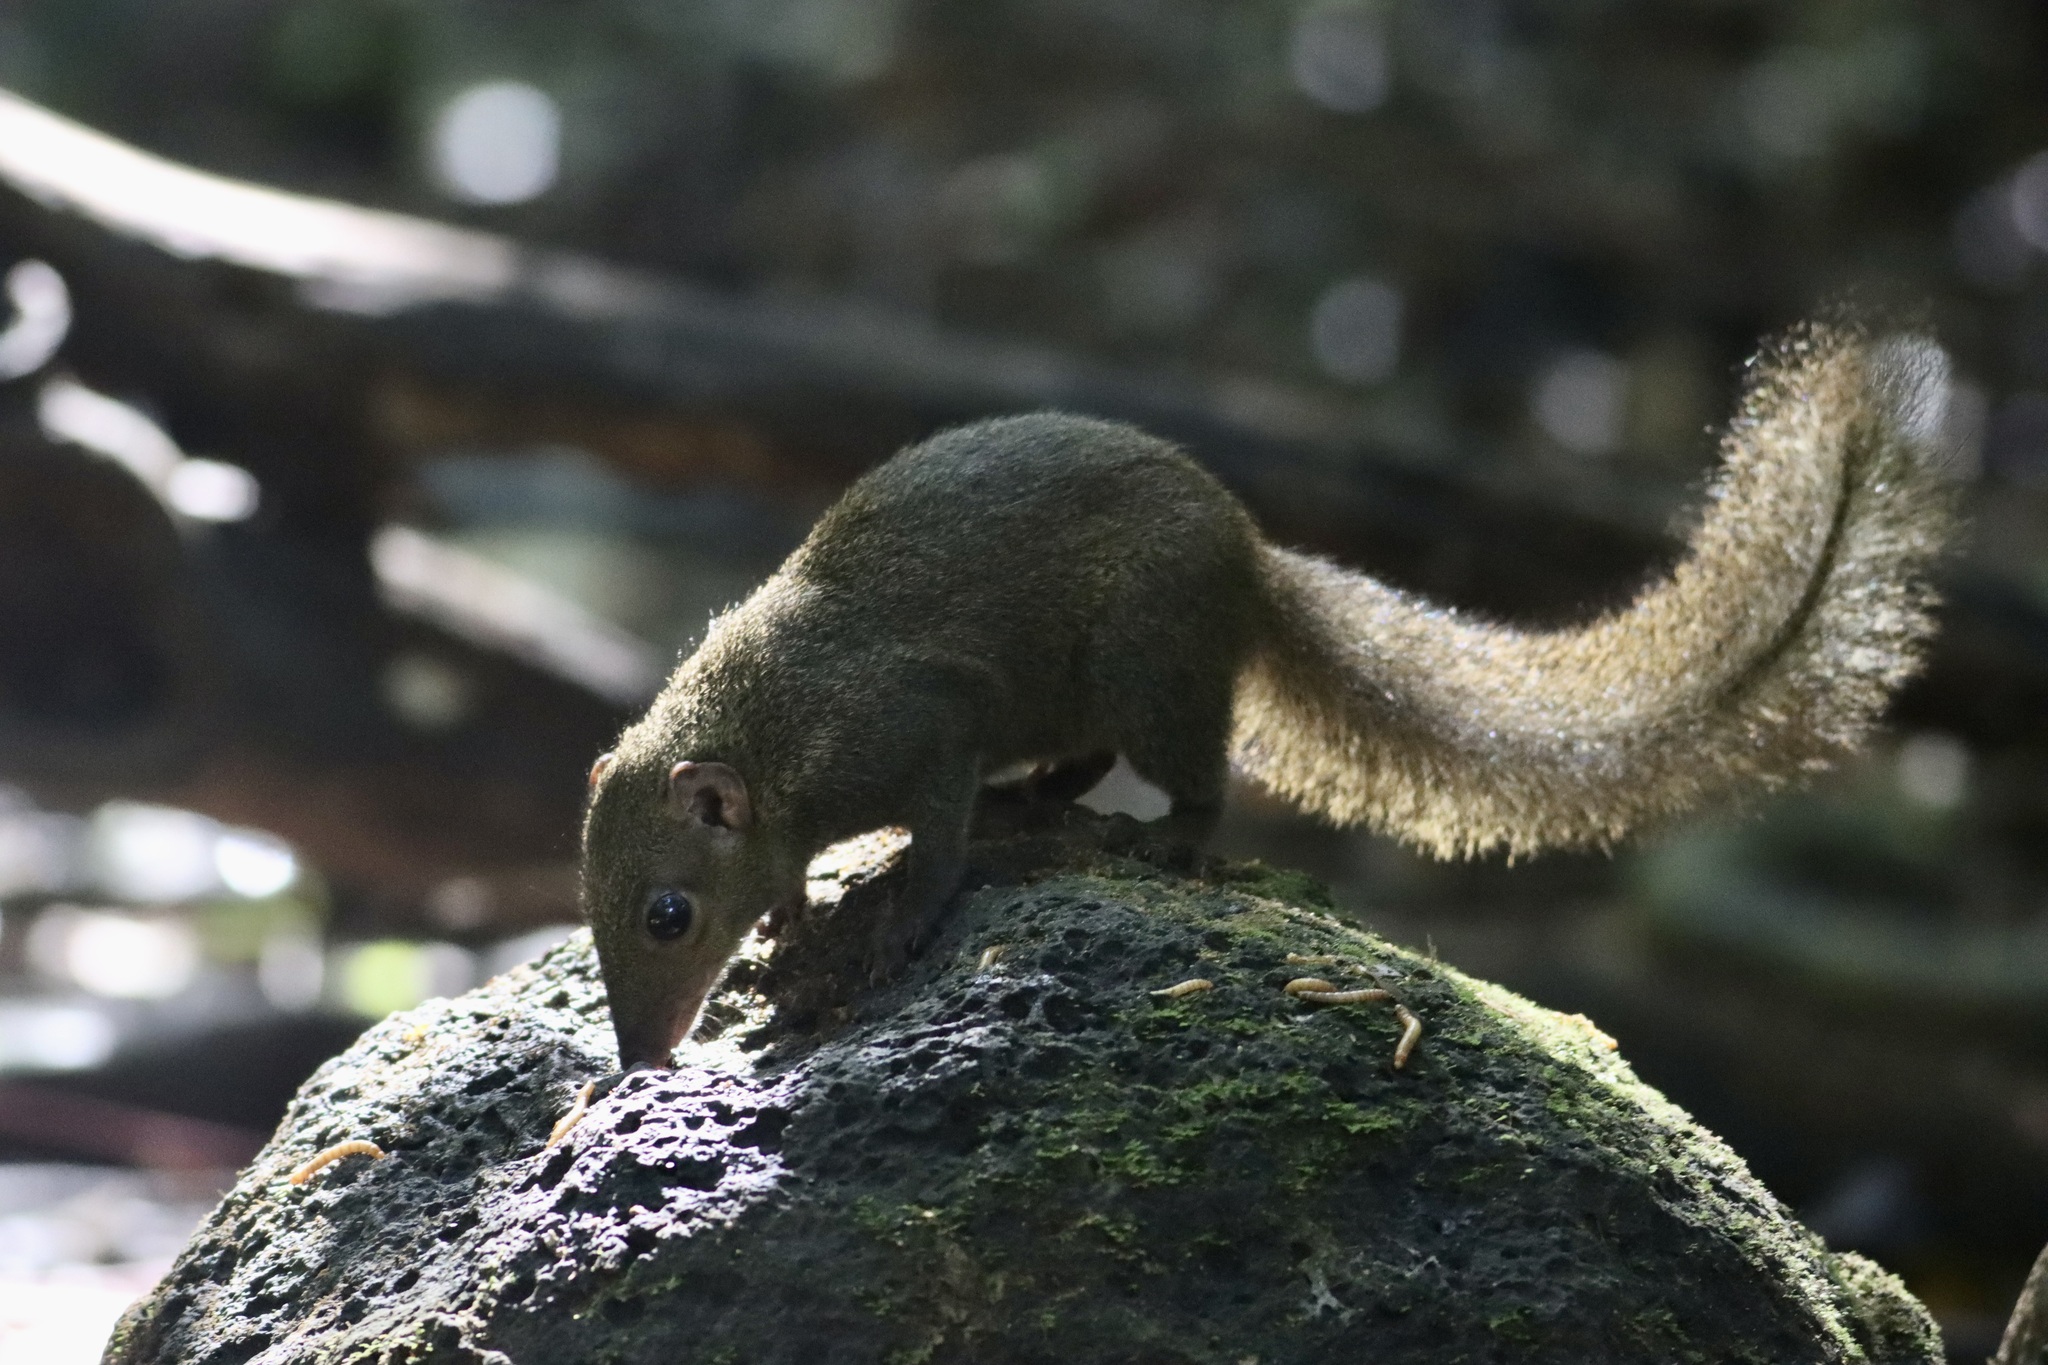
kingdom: Animalia
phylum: Chordata
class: Mammalia
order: Scandentia
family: Tupaiidae
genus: Tupaia
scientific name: Tupaia belangeri
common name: Northern treeshrew
